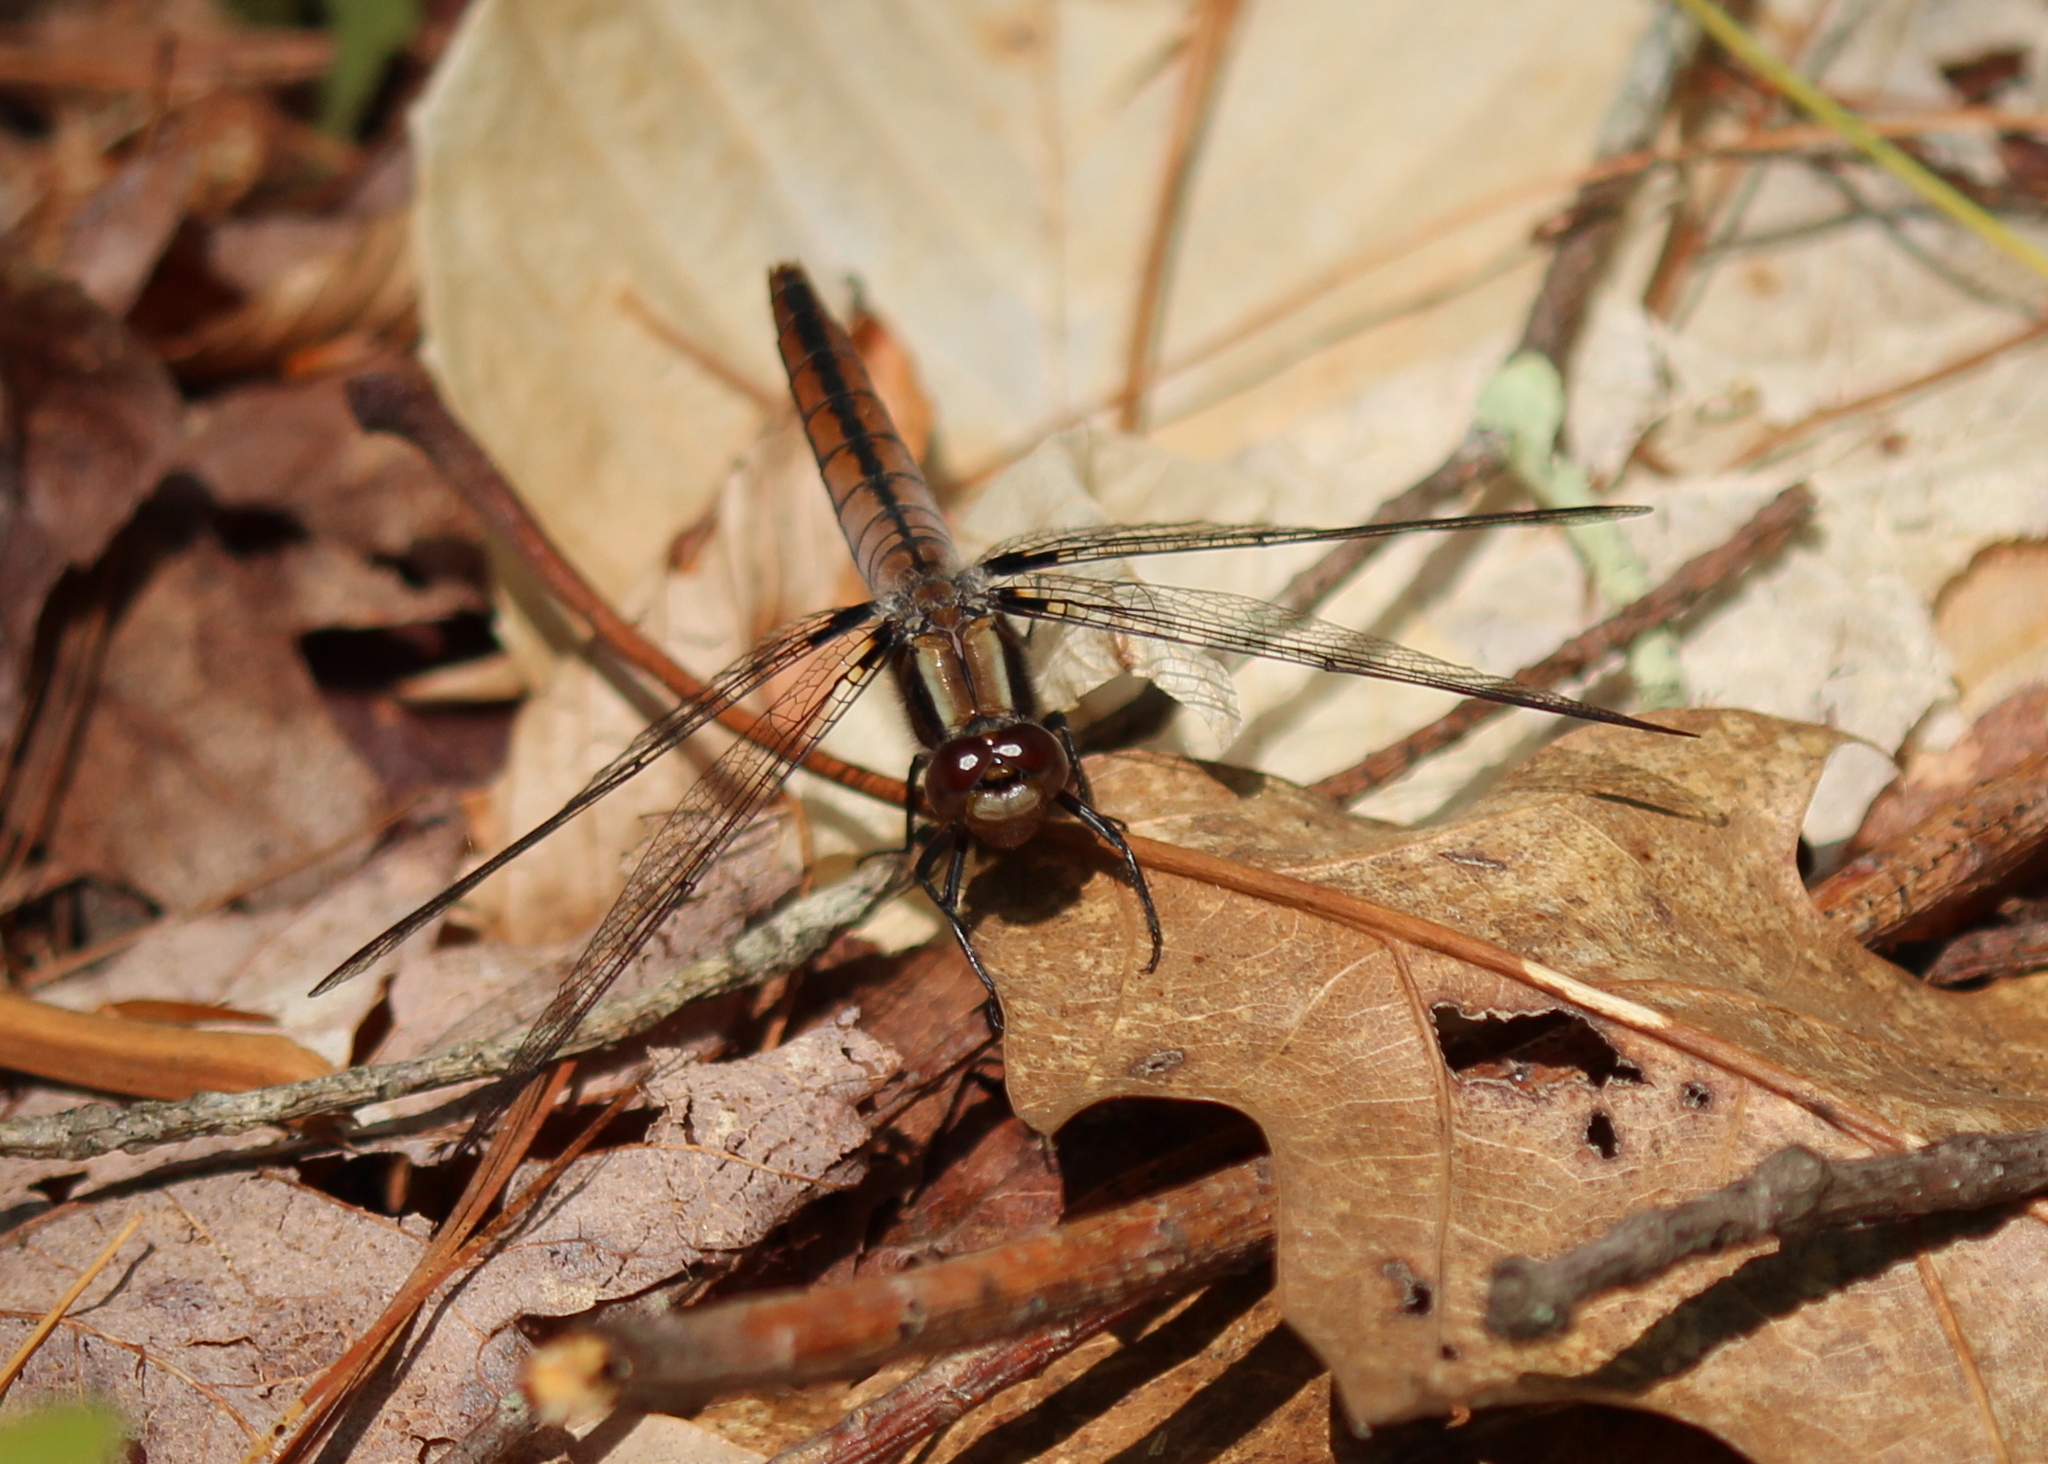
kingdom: Animalia
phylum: Arthropoda
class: Insecta
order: Odonata
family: Libellulidae
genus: Ladona
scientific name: Ladona julia
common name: Chalk-fronted corporal
